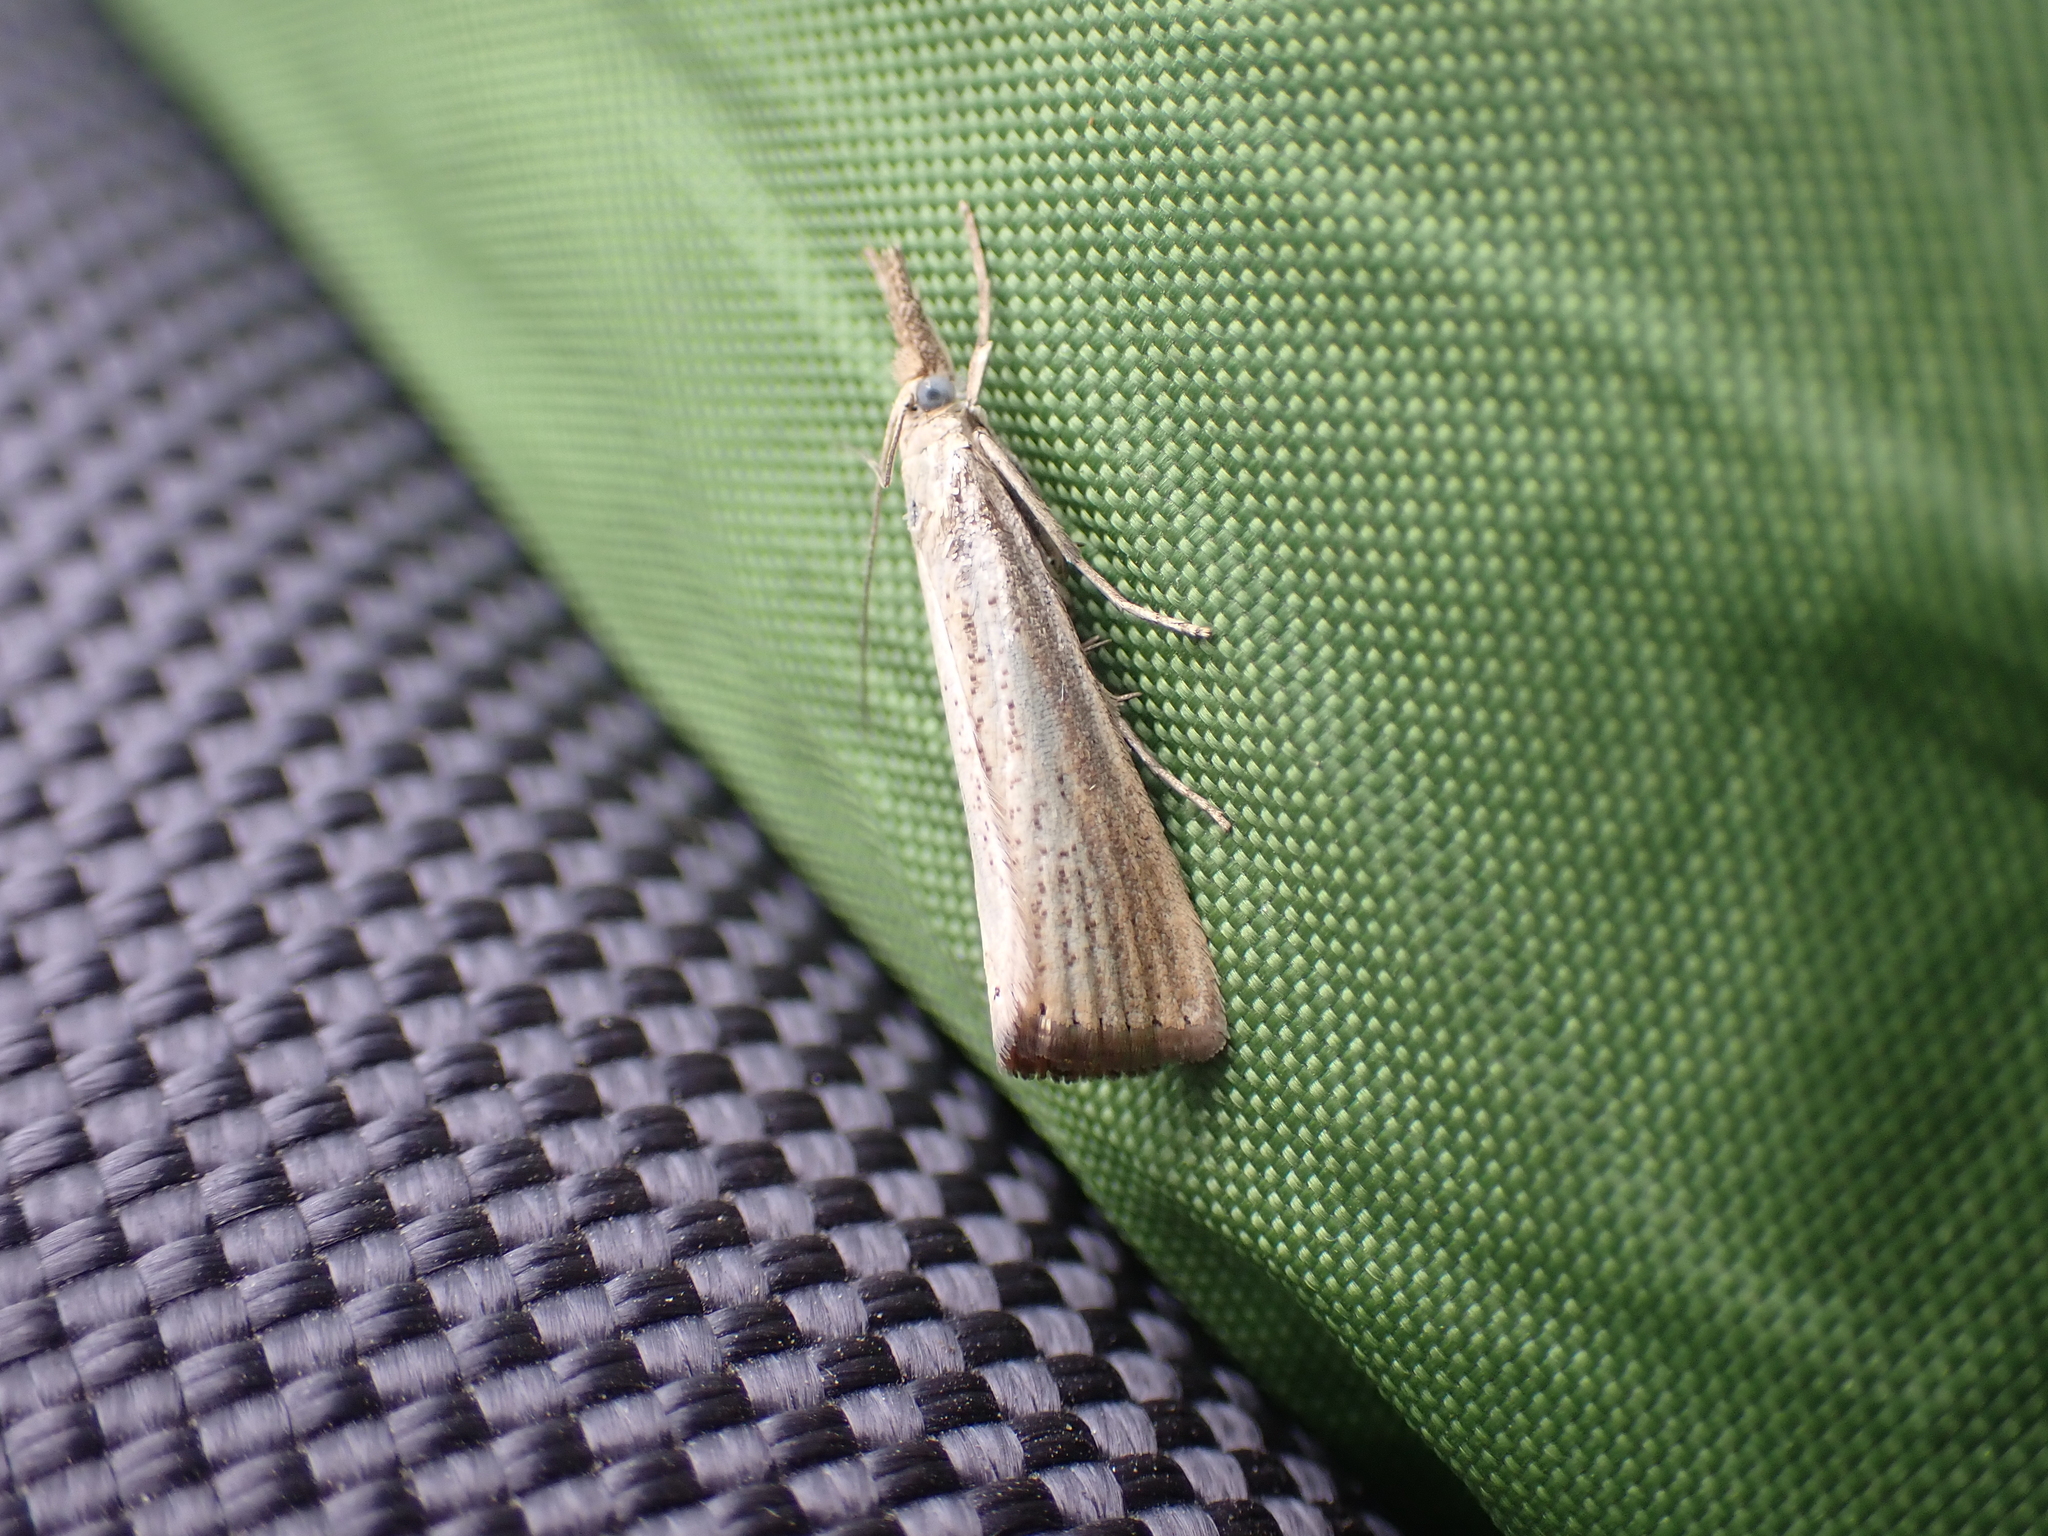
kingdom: Animalia
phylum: Arthropoda
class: Insecta
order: Lepidoptera
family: Crambidae
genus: Agriphila
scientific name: Agriphila straminella
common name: Straw grass-veneer
